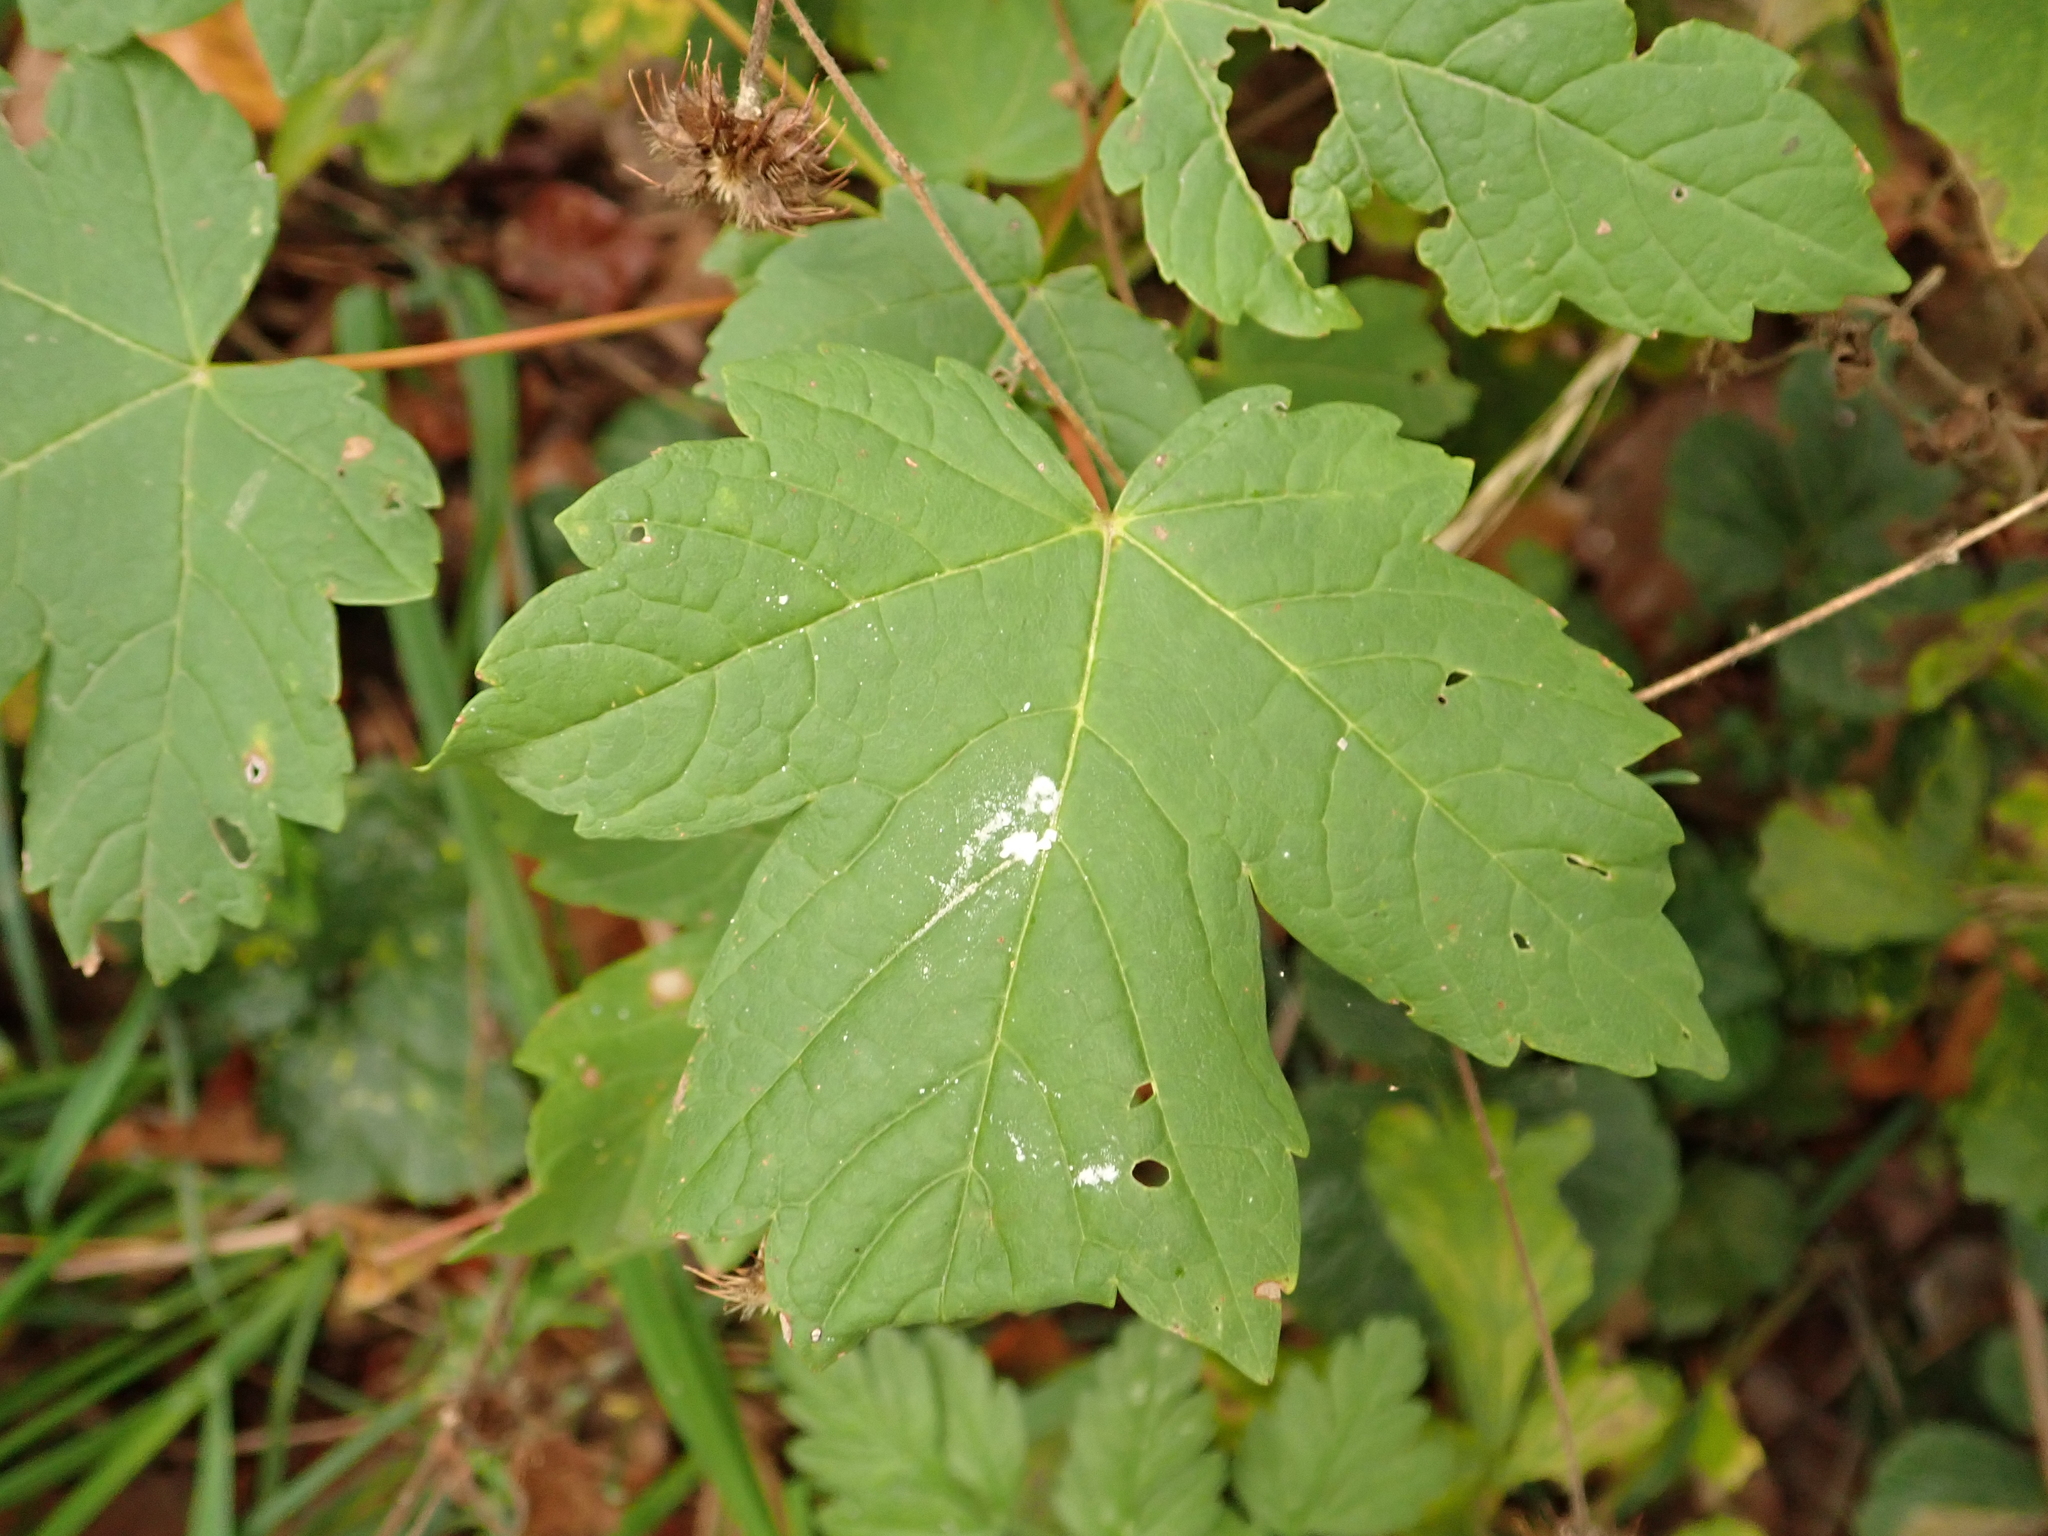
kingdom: Plantae
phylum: Tracheophyta
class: Magnoliopsida
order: Sapindales
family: Sapindaceae
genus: Acer
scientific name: Acer pseudoplatanus
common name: Sycamore
